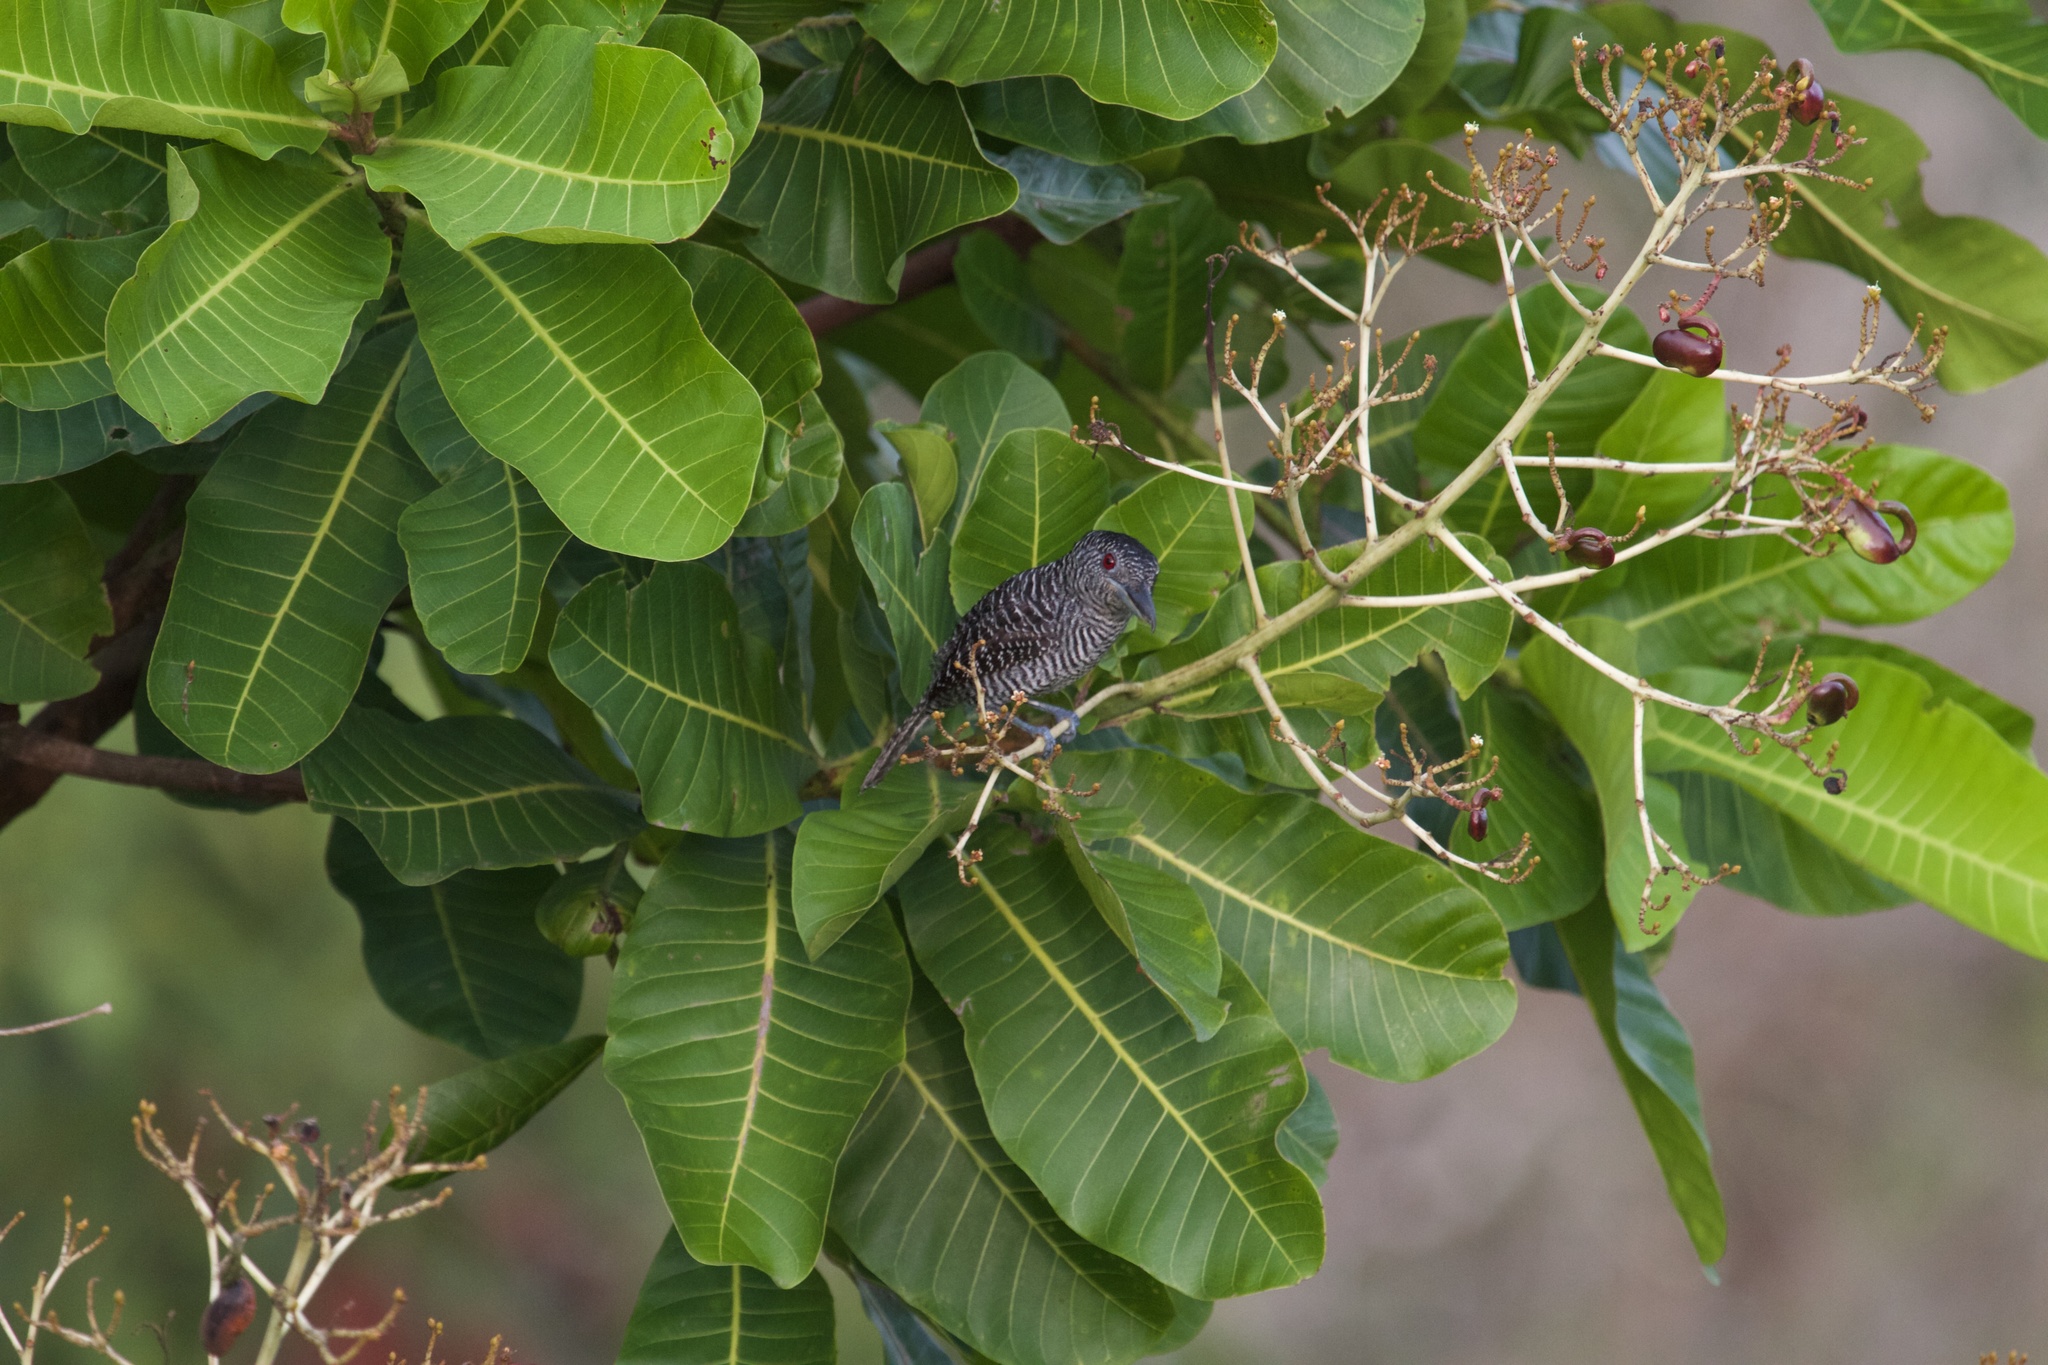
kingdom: Animalia
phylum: Chordata
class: Aves
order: Passeriformes
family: Thamnophilidae
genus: Cymbilaimus
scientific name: Cymbilaimus lineatus
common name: Fasciated antshrike
